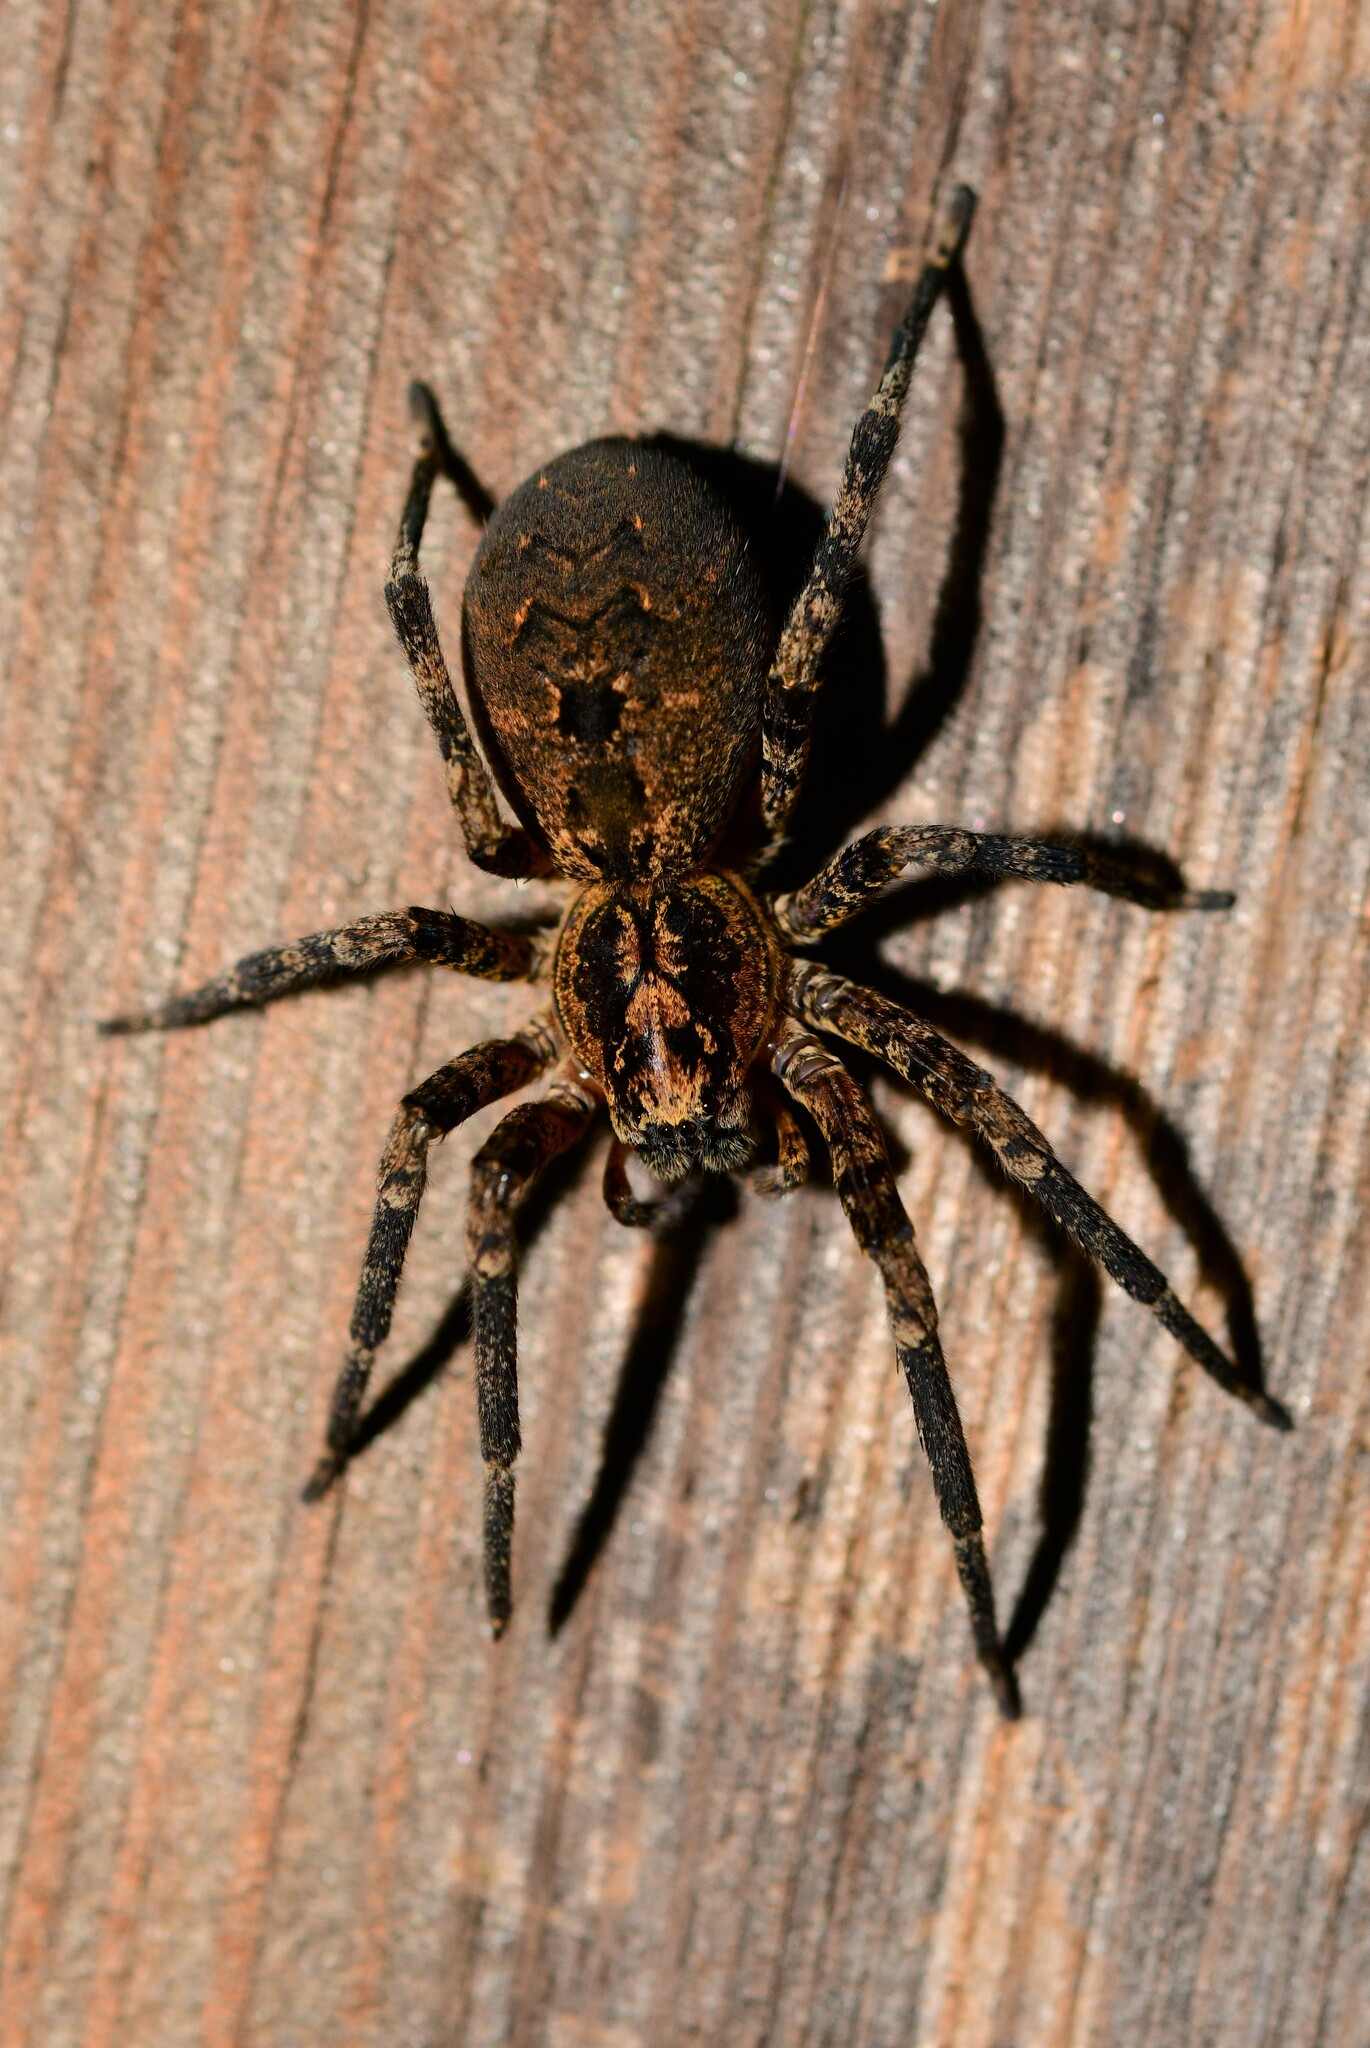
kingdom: Animalia
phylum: Arthropoda
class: Arachnida
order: Araneae
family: Zoropsidae
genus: Zoropsis
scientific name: Zoropsis spinimana
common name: Zoropsid spider
